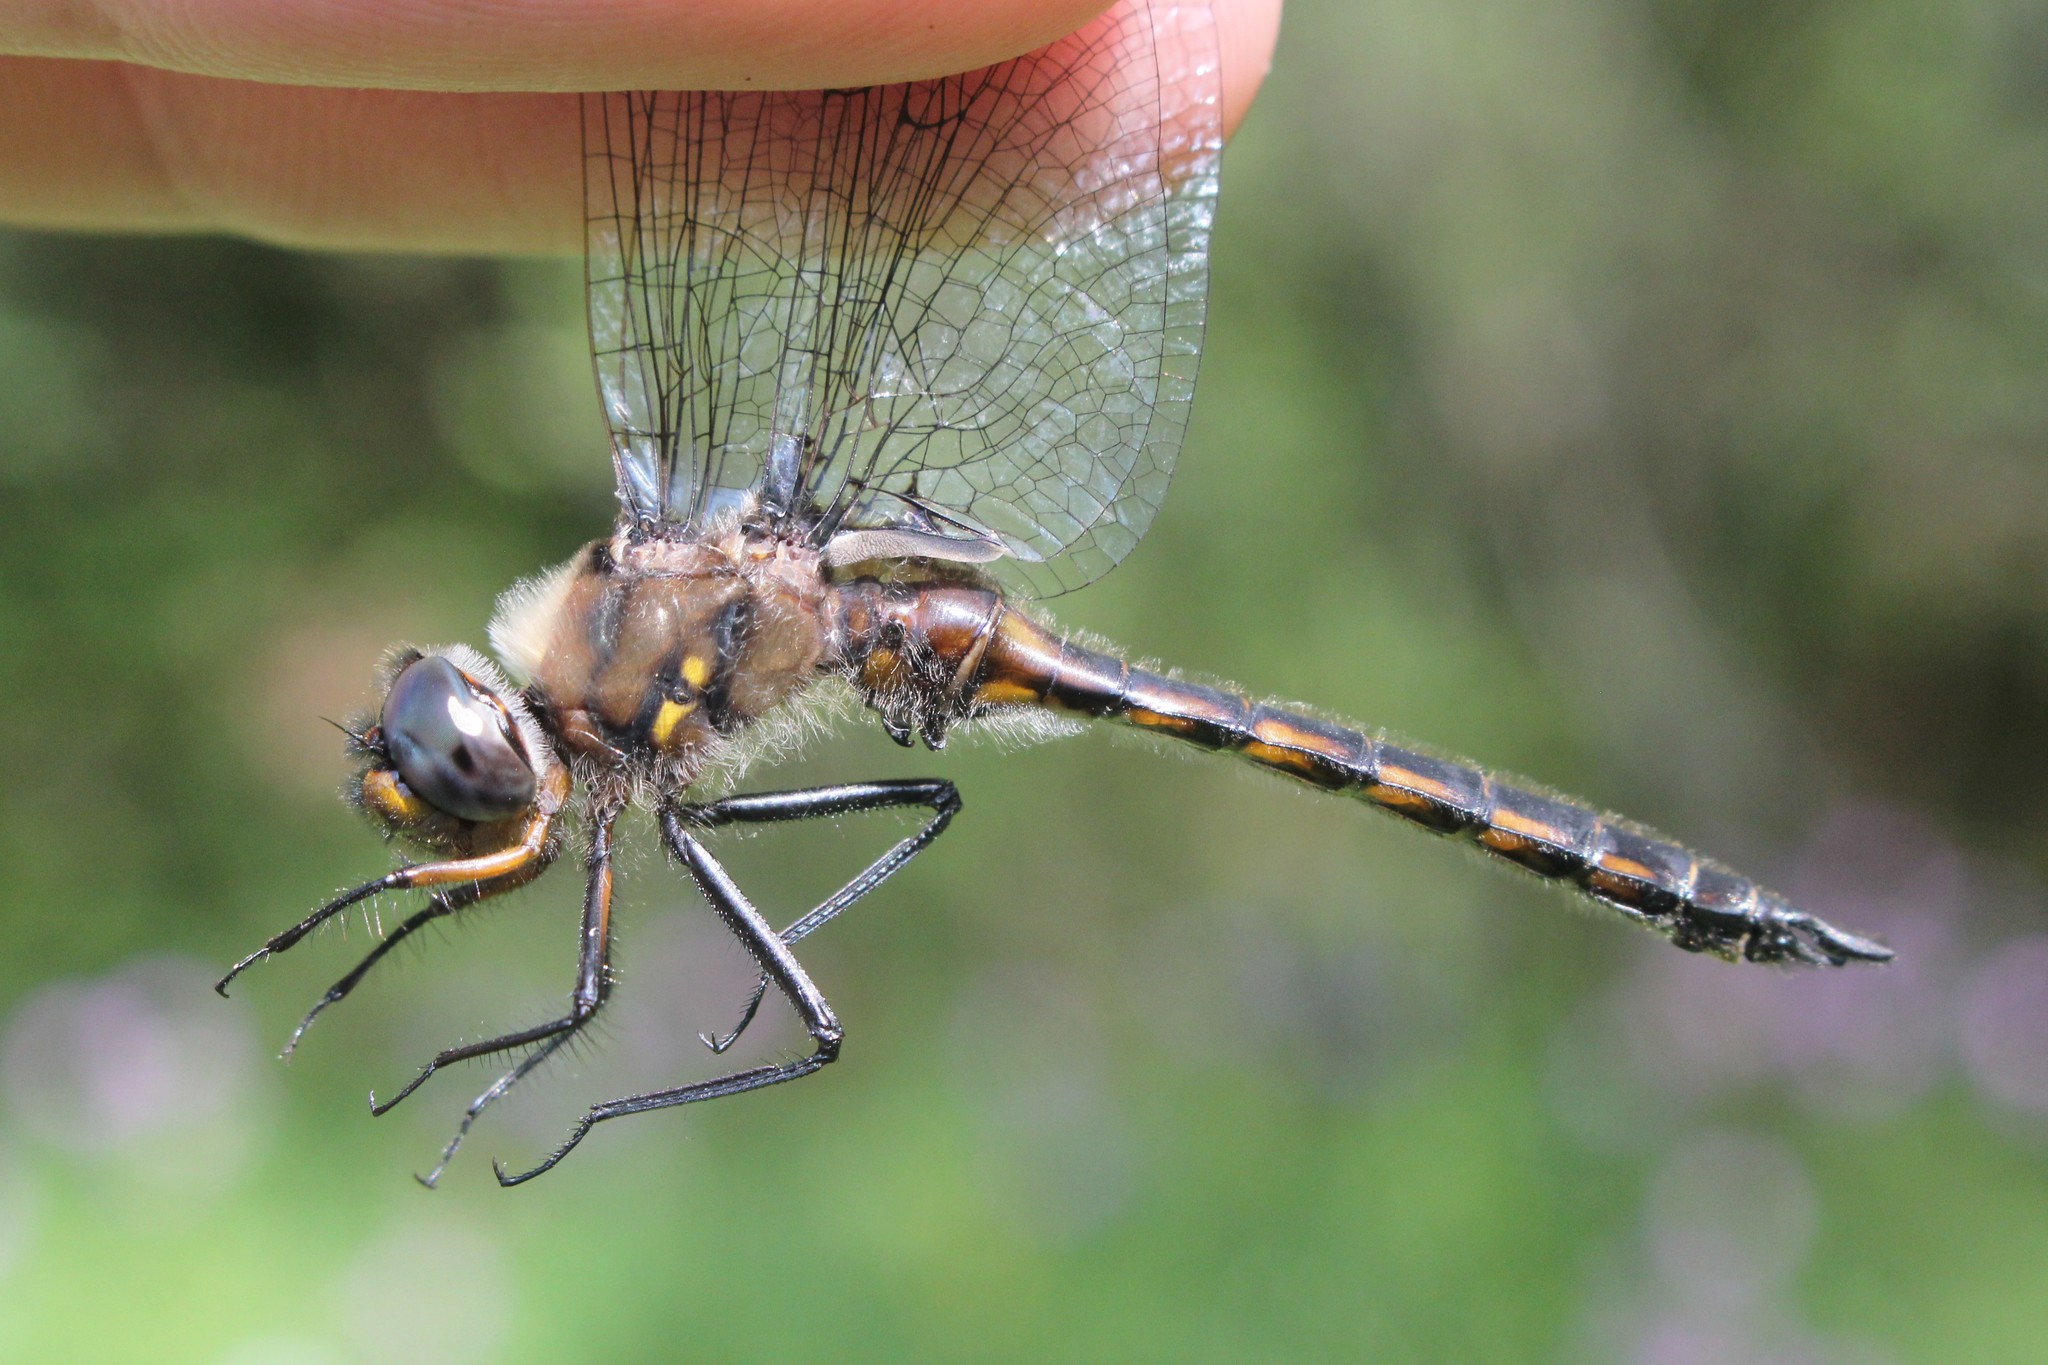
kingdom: Animalia
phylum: Arthropoda
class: Insecta
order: Odonata
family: Corduliidae
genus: Epitheca
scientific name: Epitheca cynosura
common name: Common baskettail
